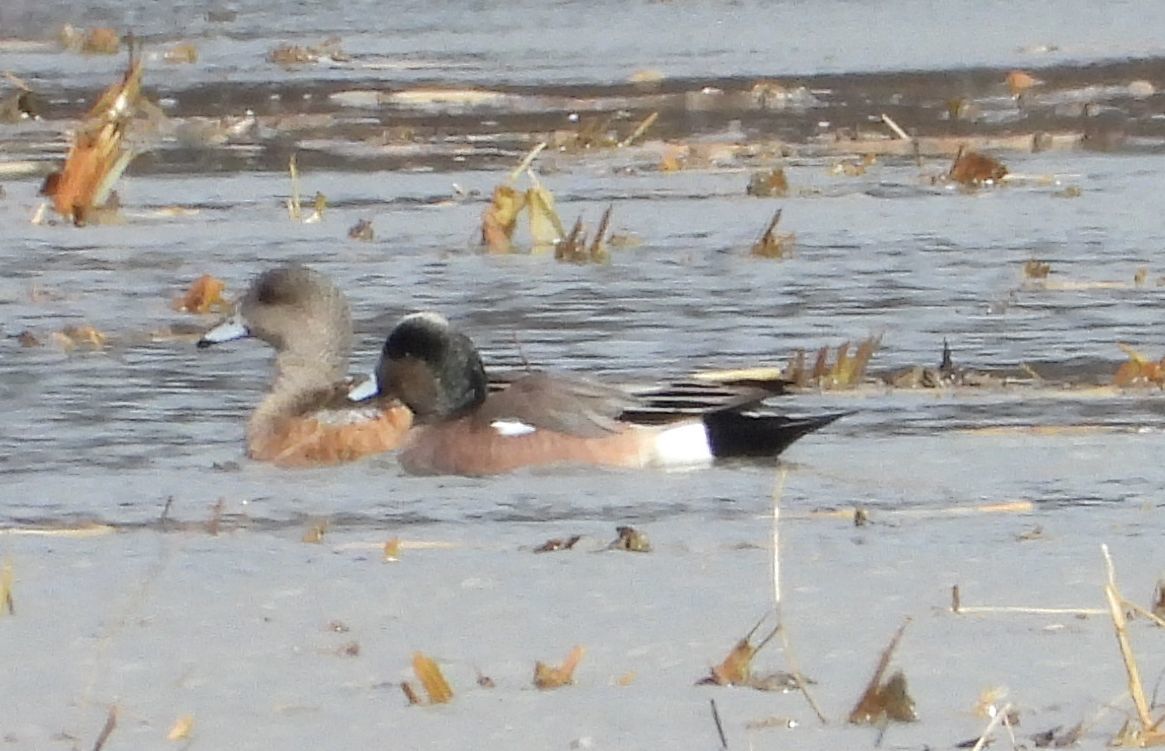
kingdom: Animalia
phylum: Chordata
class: Aves
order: Anseriformes
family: Anatidae
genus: Mareca
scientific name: Mareca americana
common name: American wigeon
